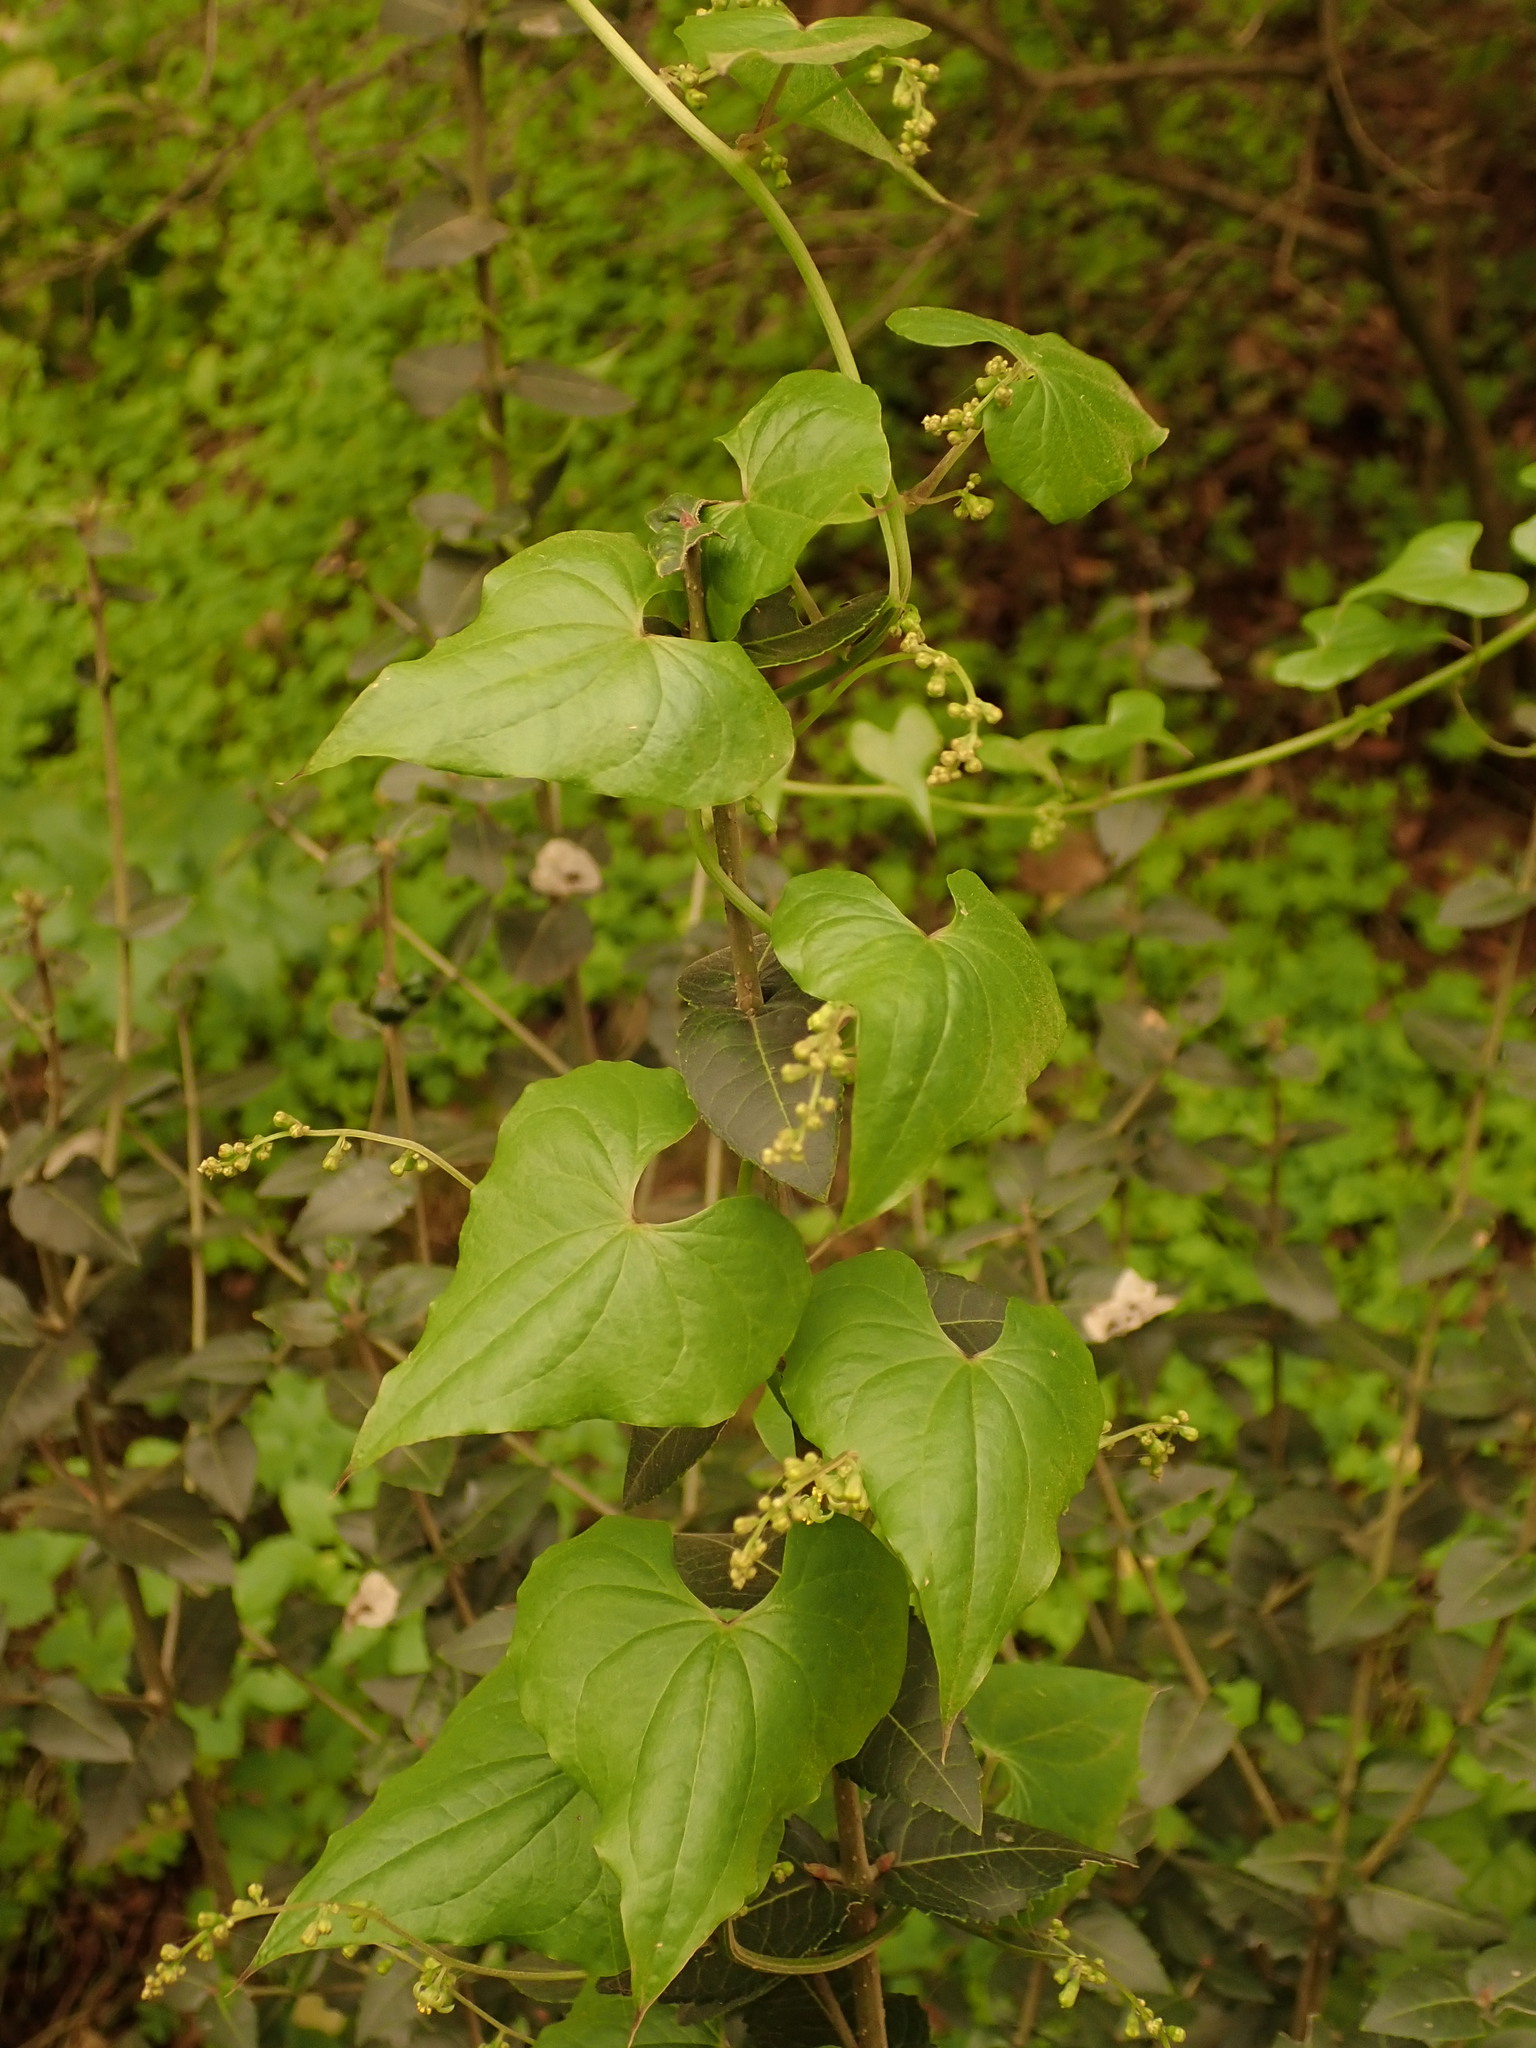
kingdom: Plantae
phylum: Tracheophyta
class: Liliopsida
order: Dioscoreales
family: Dioscoreaceae
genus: Dioscorea
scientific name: Dioscorea communis
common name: Black-bindweed
